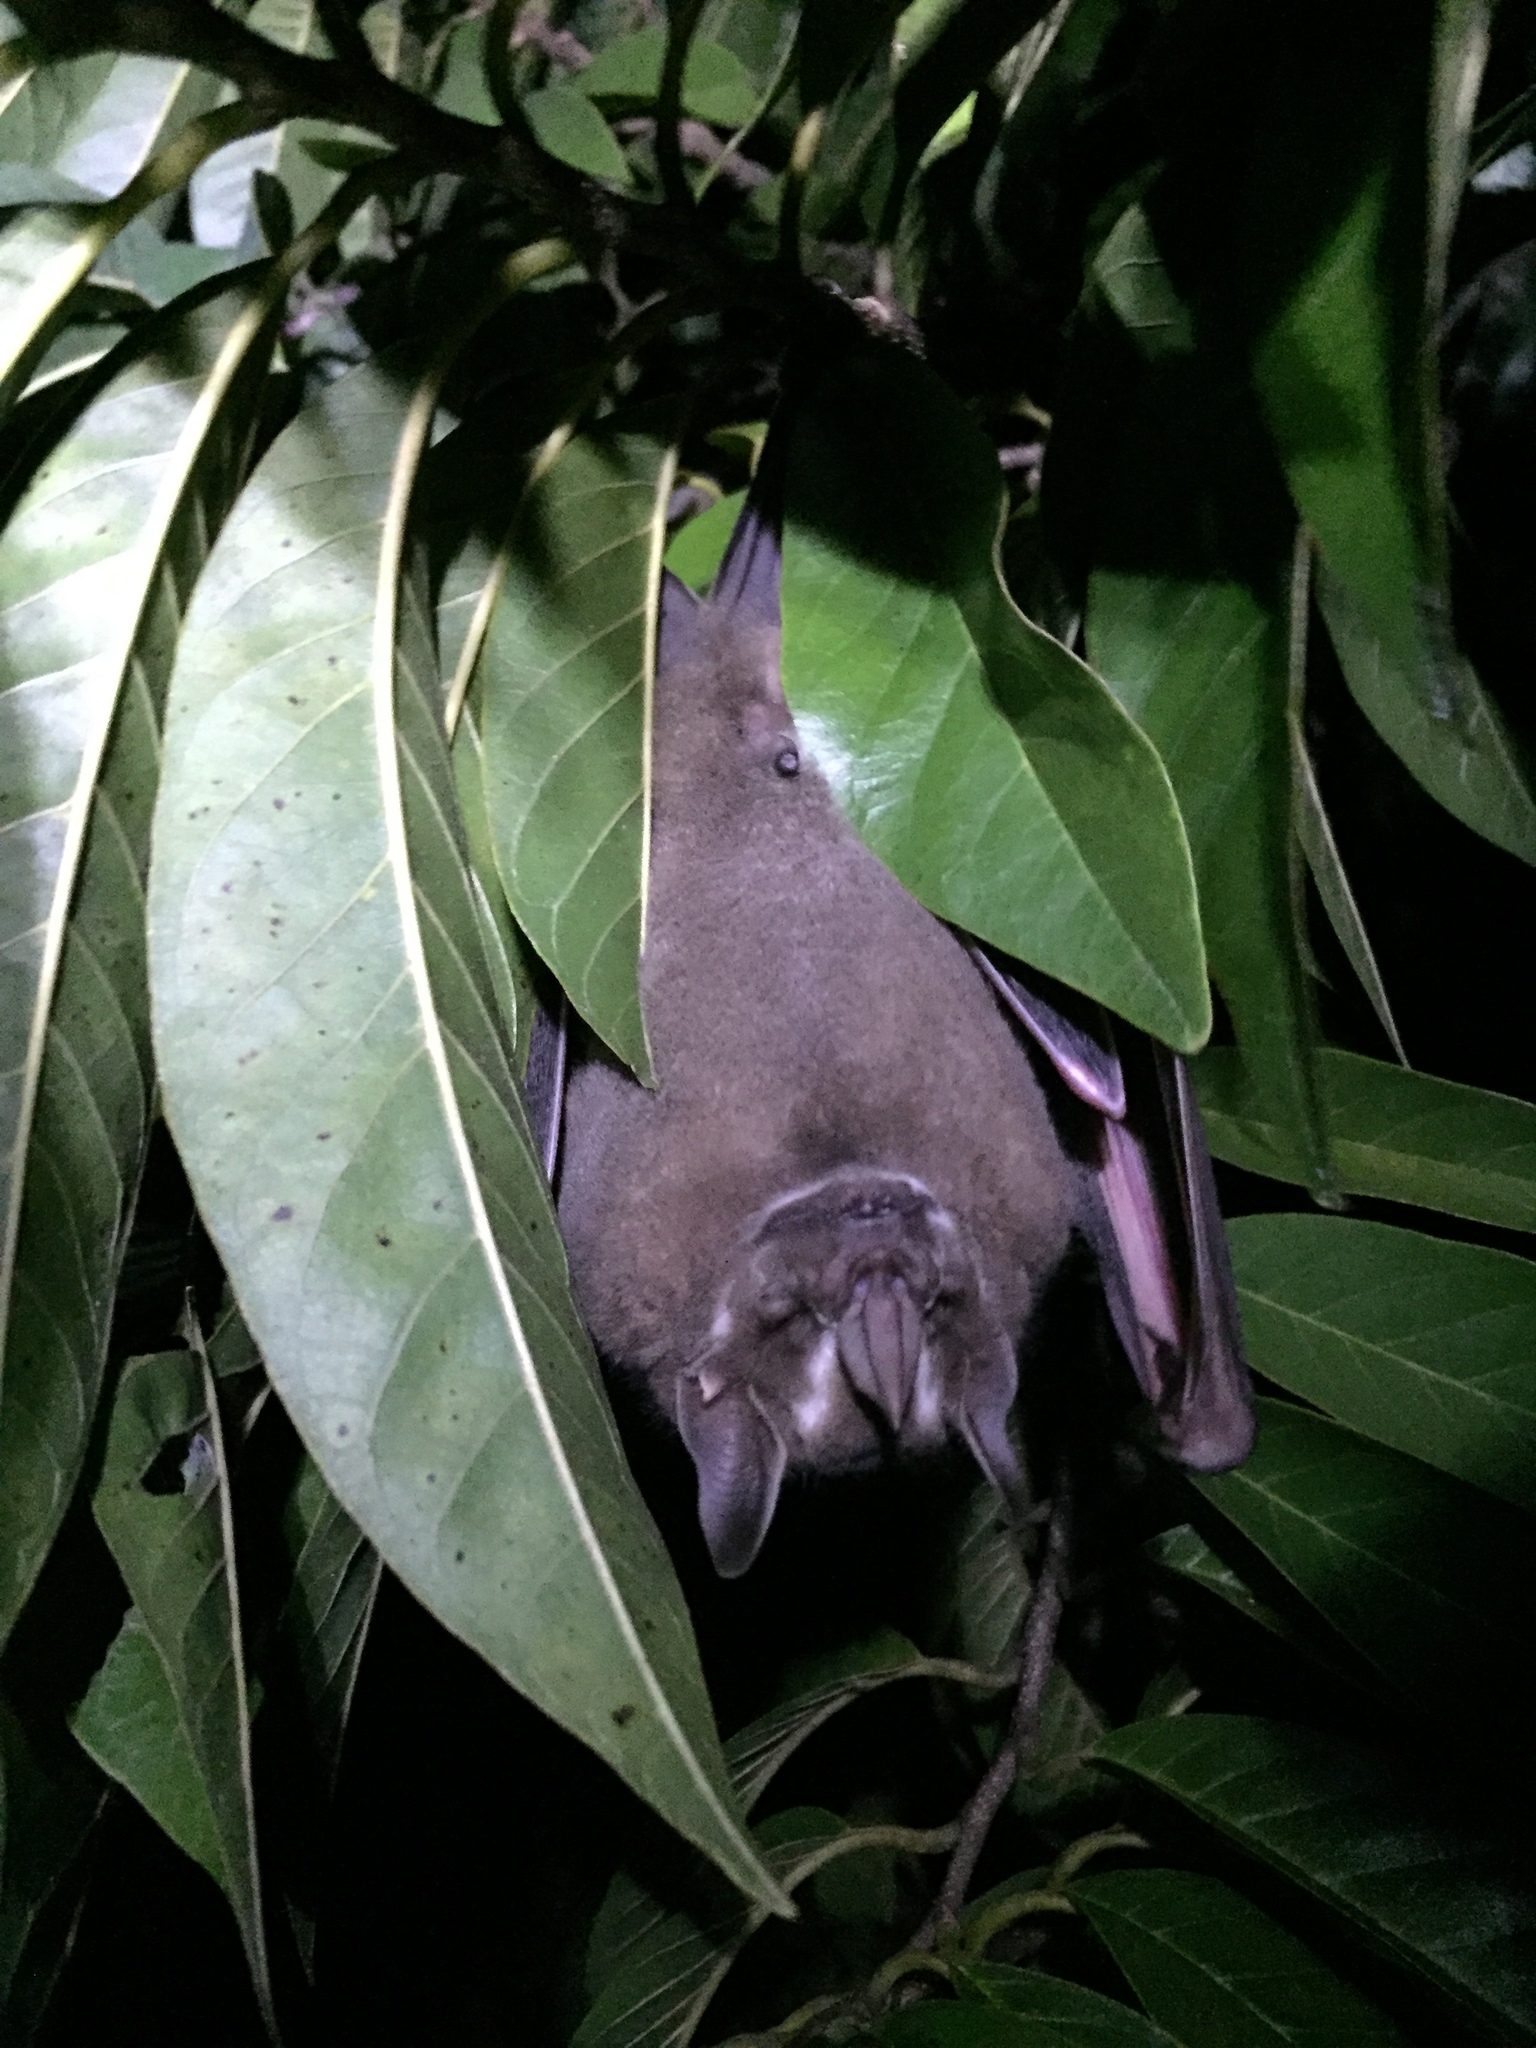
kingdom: Animalia
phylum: Chordata
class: Mammalia
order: Chiroptera
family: Phyllostomidae
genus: Artibeus
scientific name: Artibeus lituratus
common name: Great fruit-eating bat
